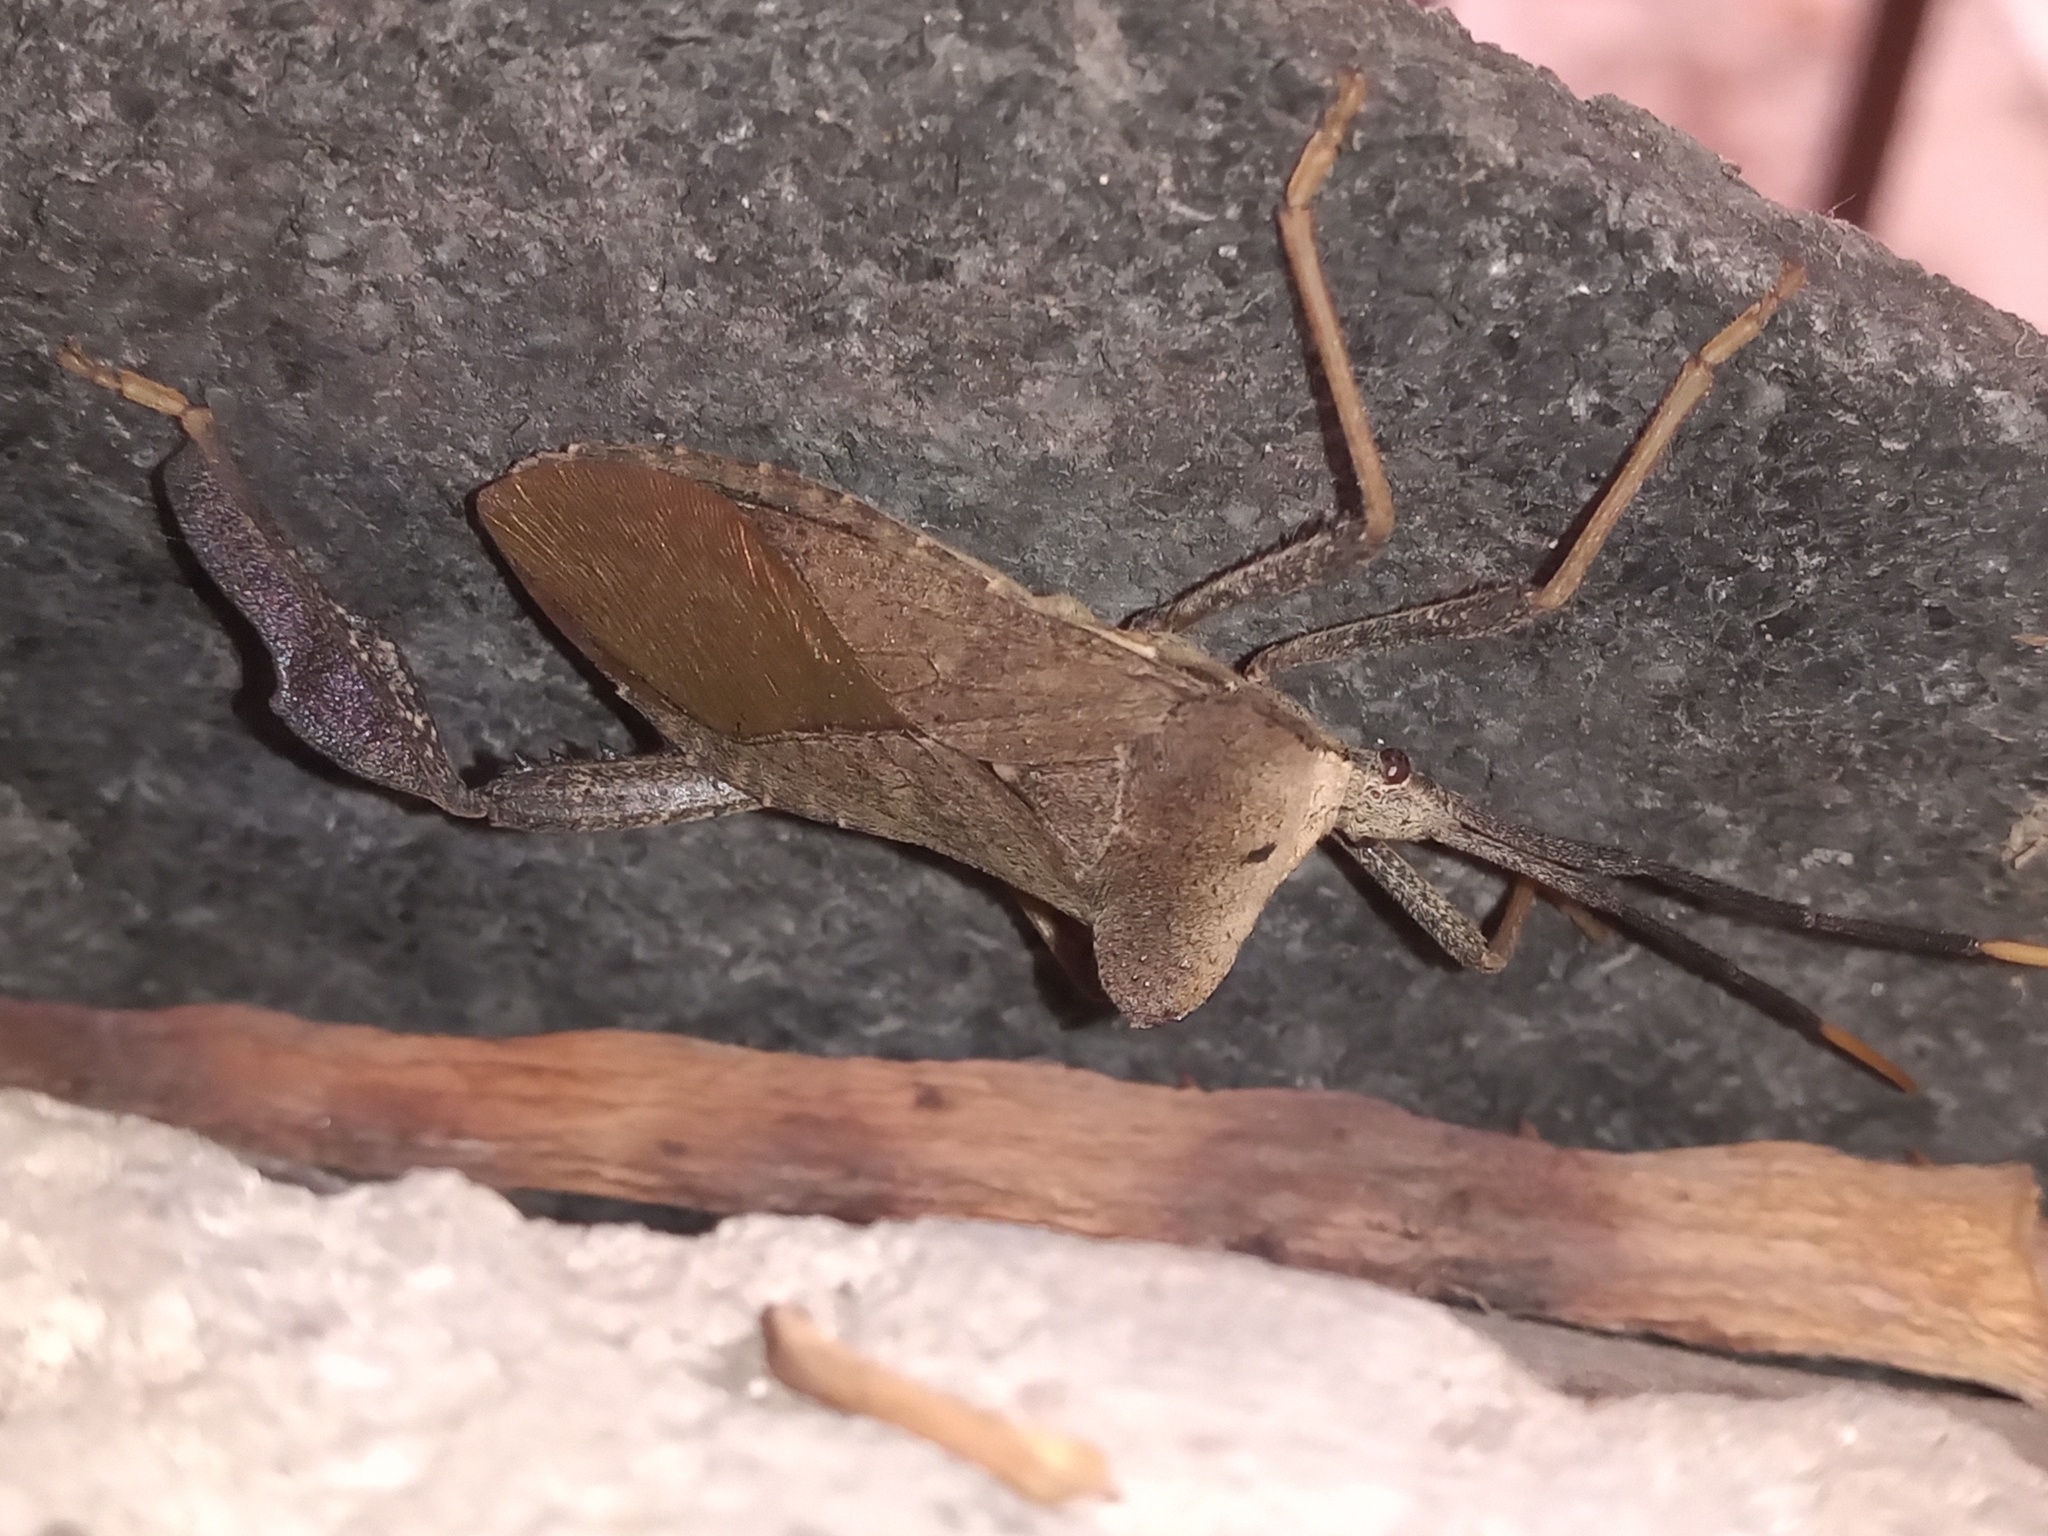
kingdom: Animalia
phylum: Arthropoda
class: Insecta
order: Hemiptera
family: Coreidae
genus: Acanthocephala
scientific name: Acanthocephala alata
